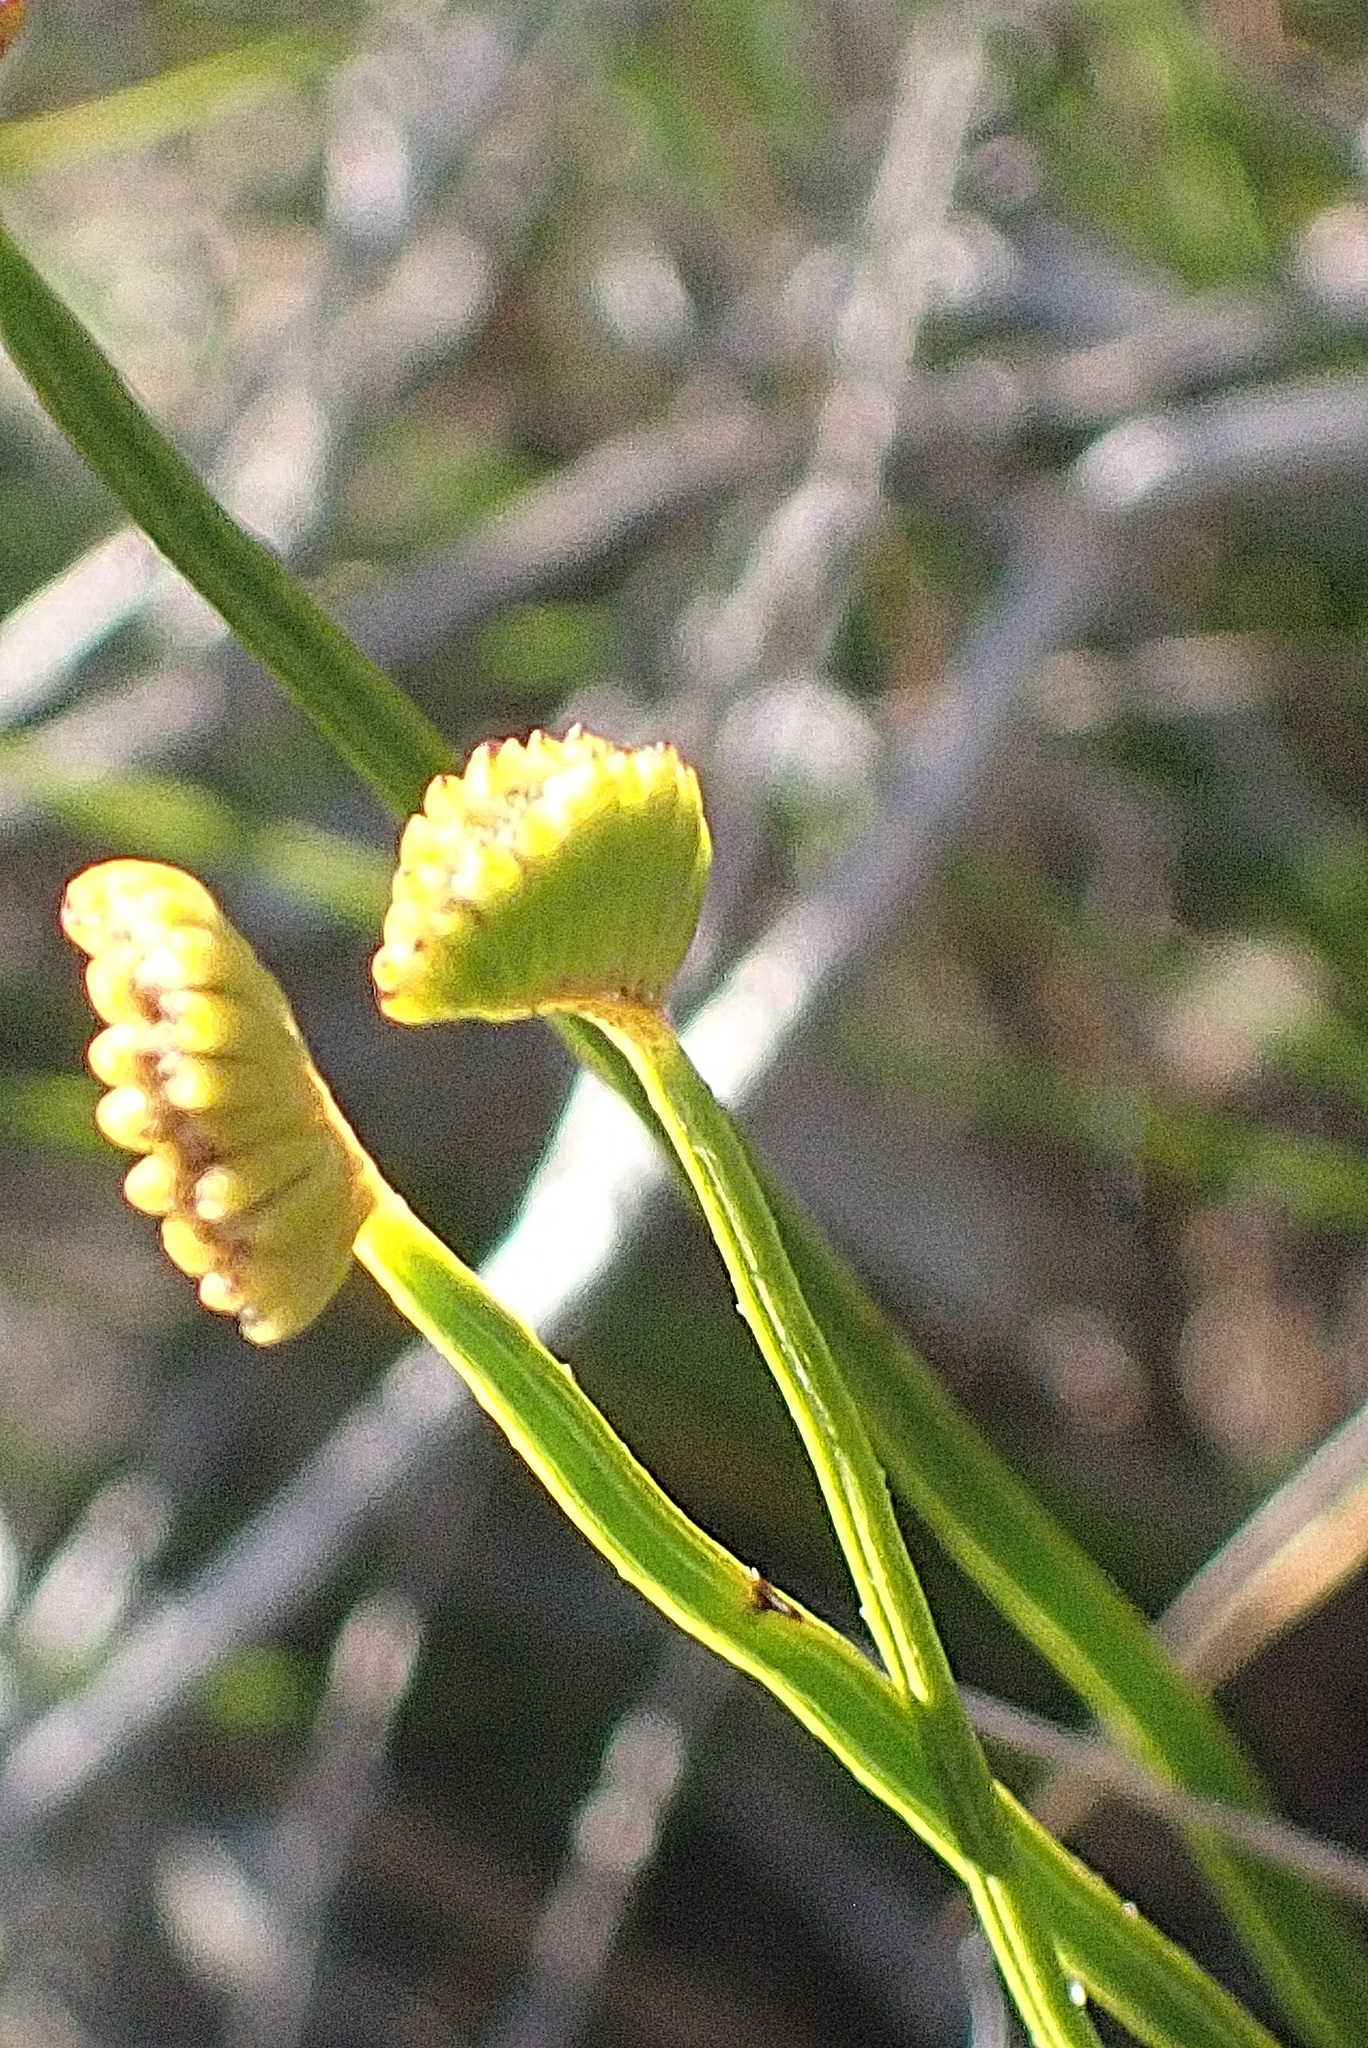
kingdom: Plantae
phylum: Tracheophyta
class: Polypodiopsida
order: Schizaeales
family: Schizaeaceae
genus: Schizaea
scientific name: Schizaea pectinata
